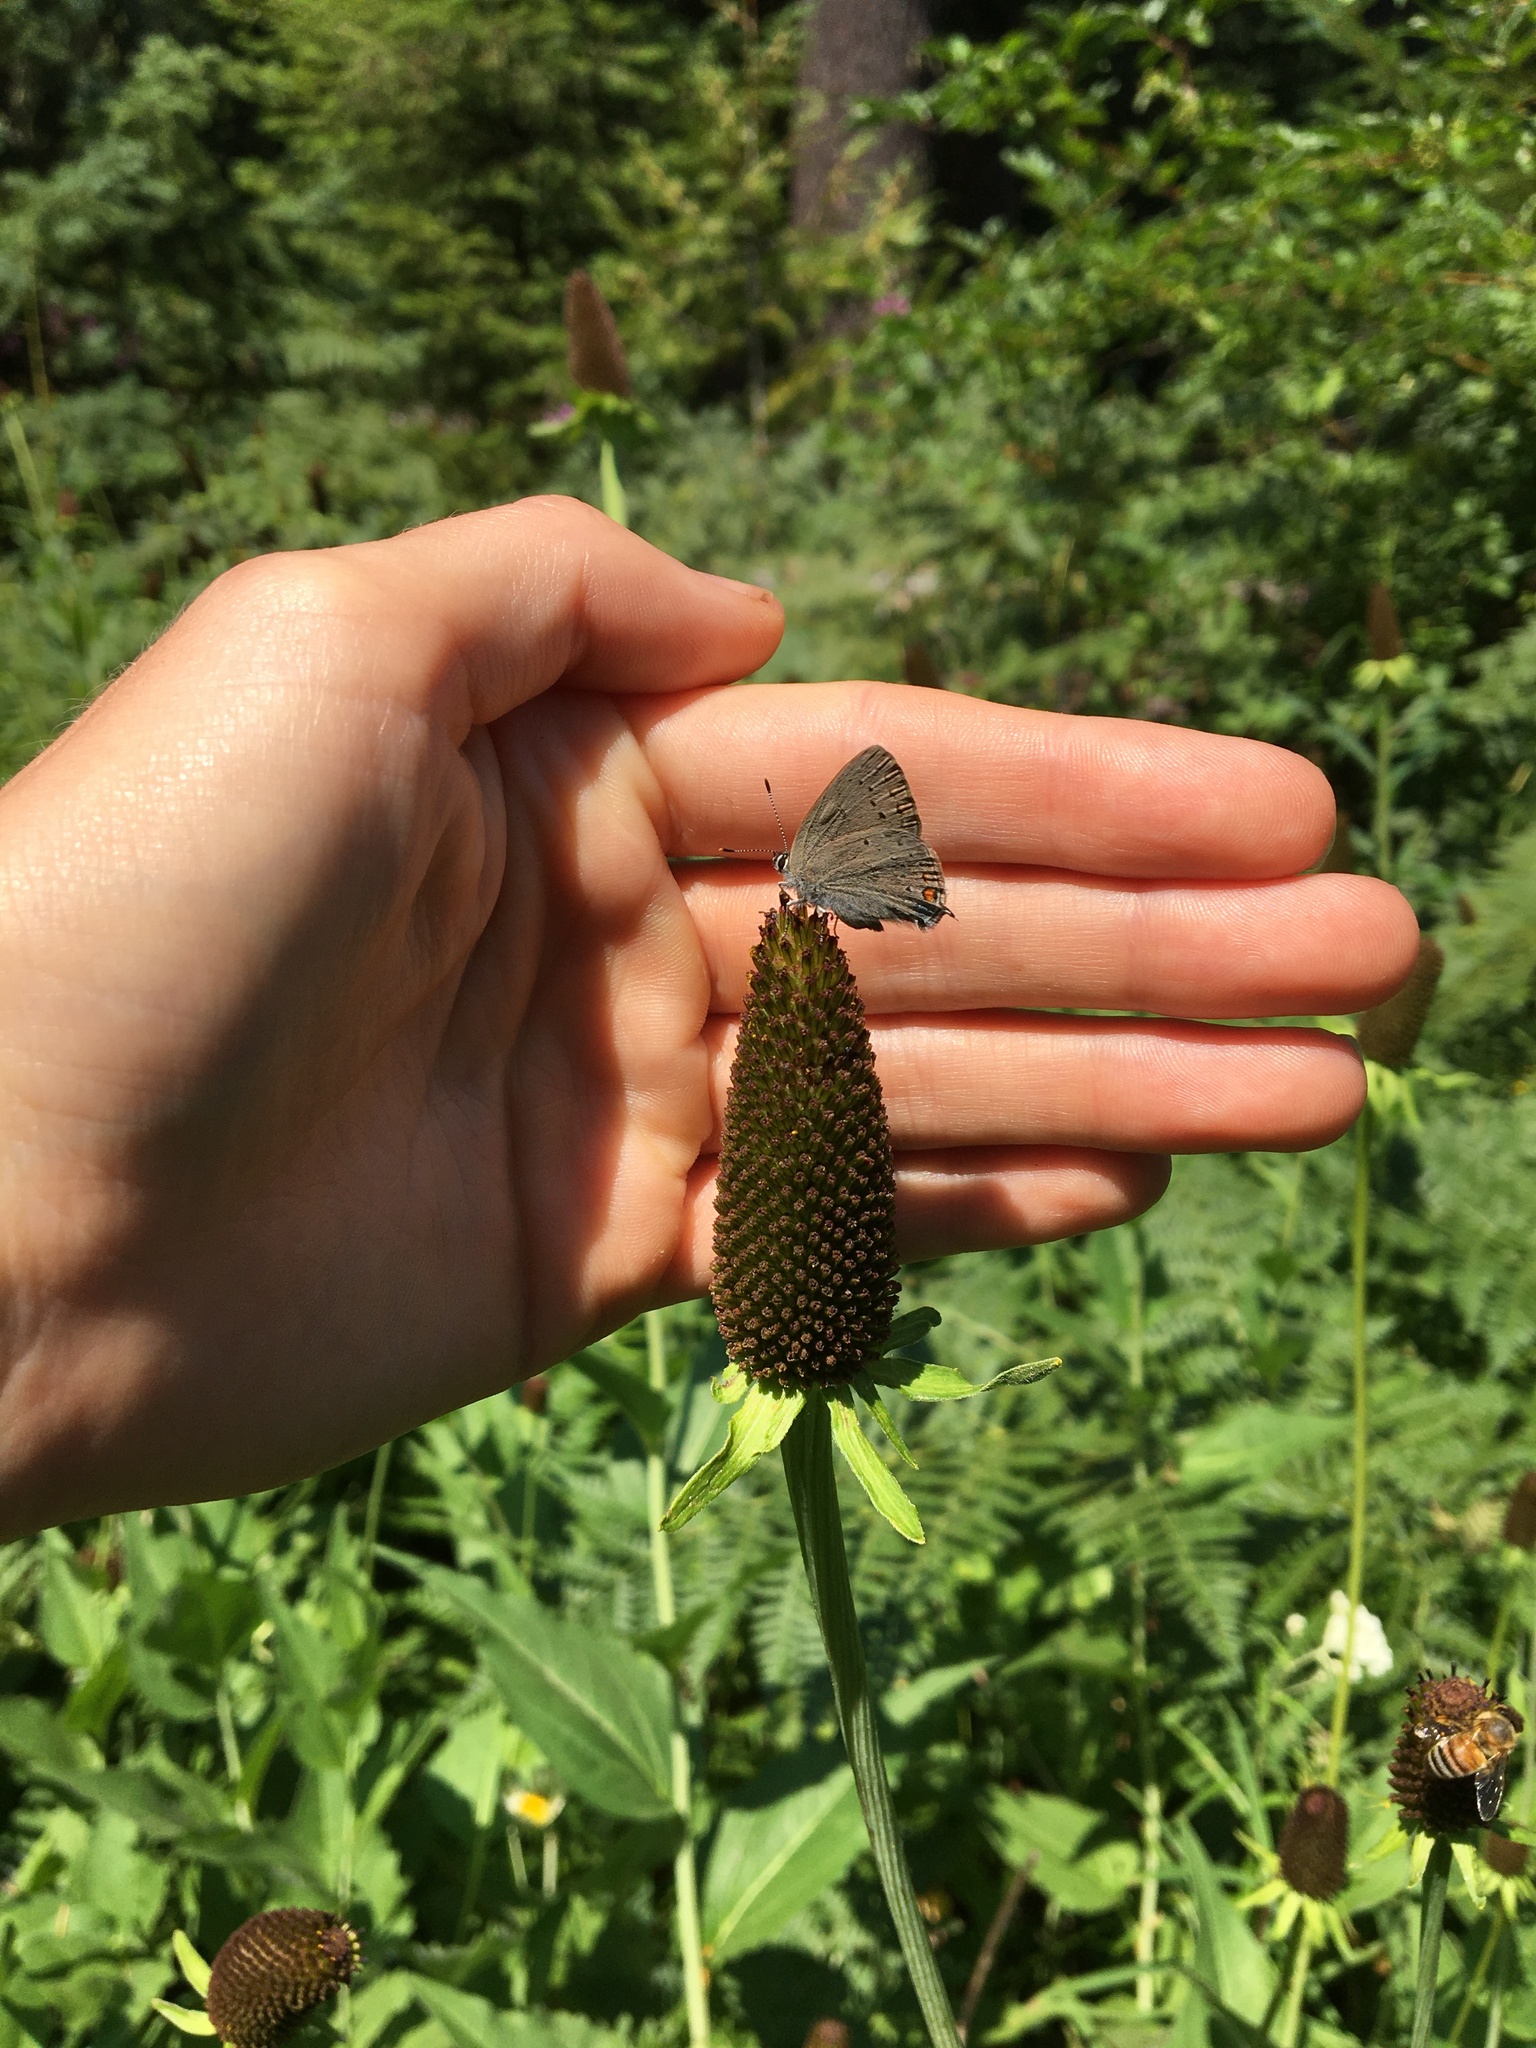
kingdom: Animalia
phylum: Arthropoda
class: Insecta
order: Lepidoptera
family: Lycaenidae
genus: Strymon
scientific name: Strymon sylvinus
